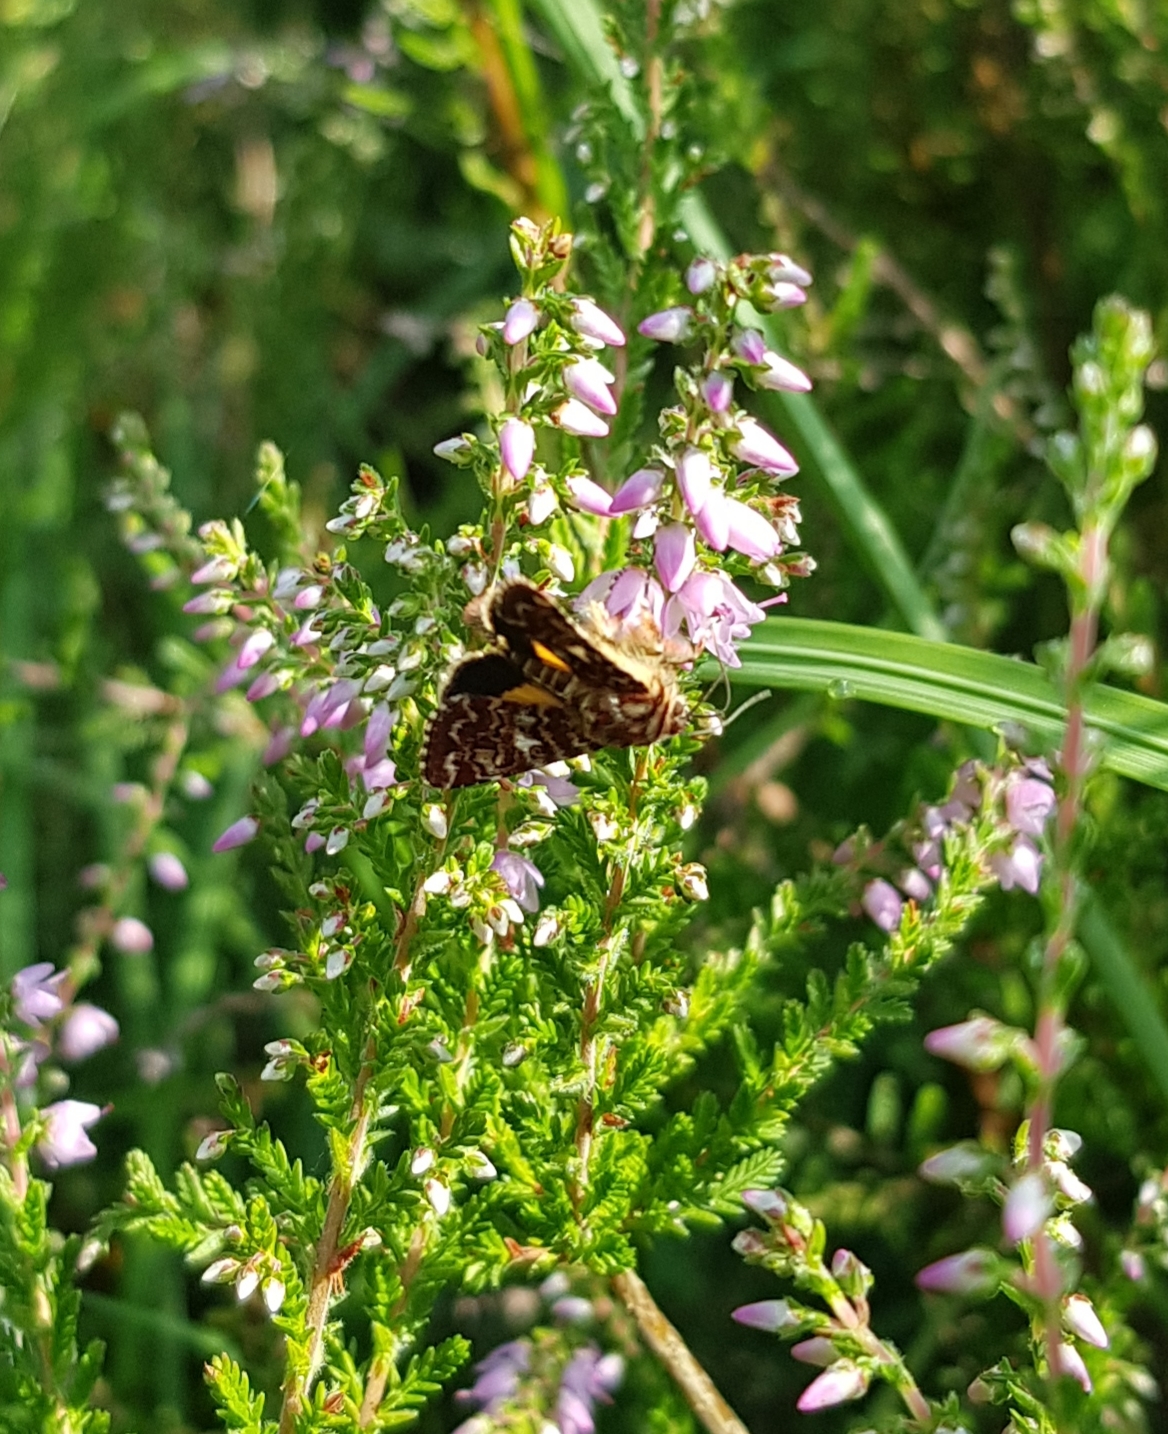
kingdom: Animalia
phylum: Arthropoda
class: Insecta
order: Lepidoptera
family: Noctuidae
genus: Anarta
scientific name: Anarta myrtilli
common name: Beautiful yellow underwing
